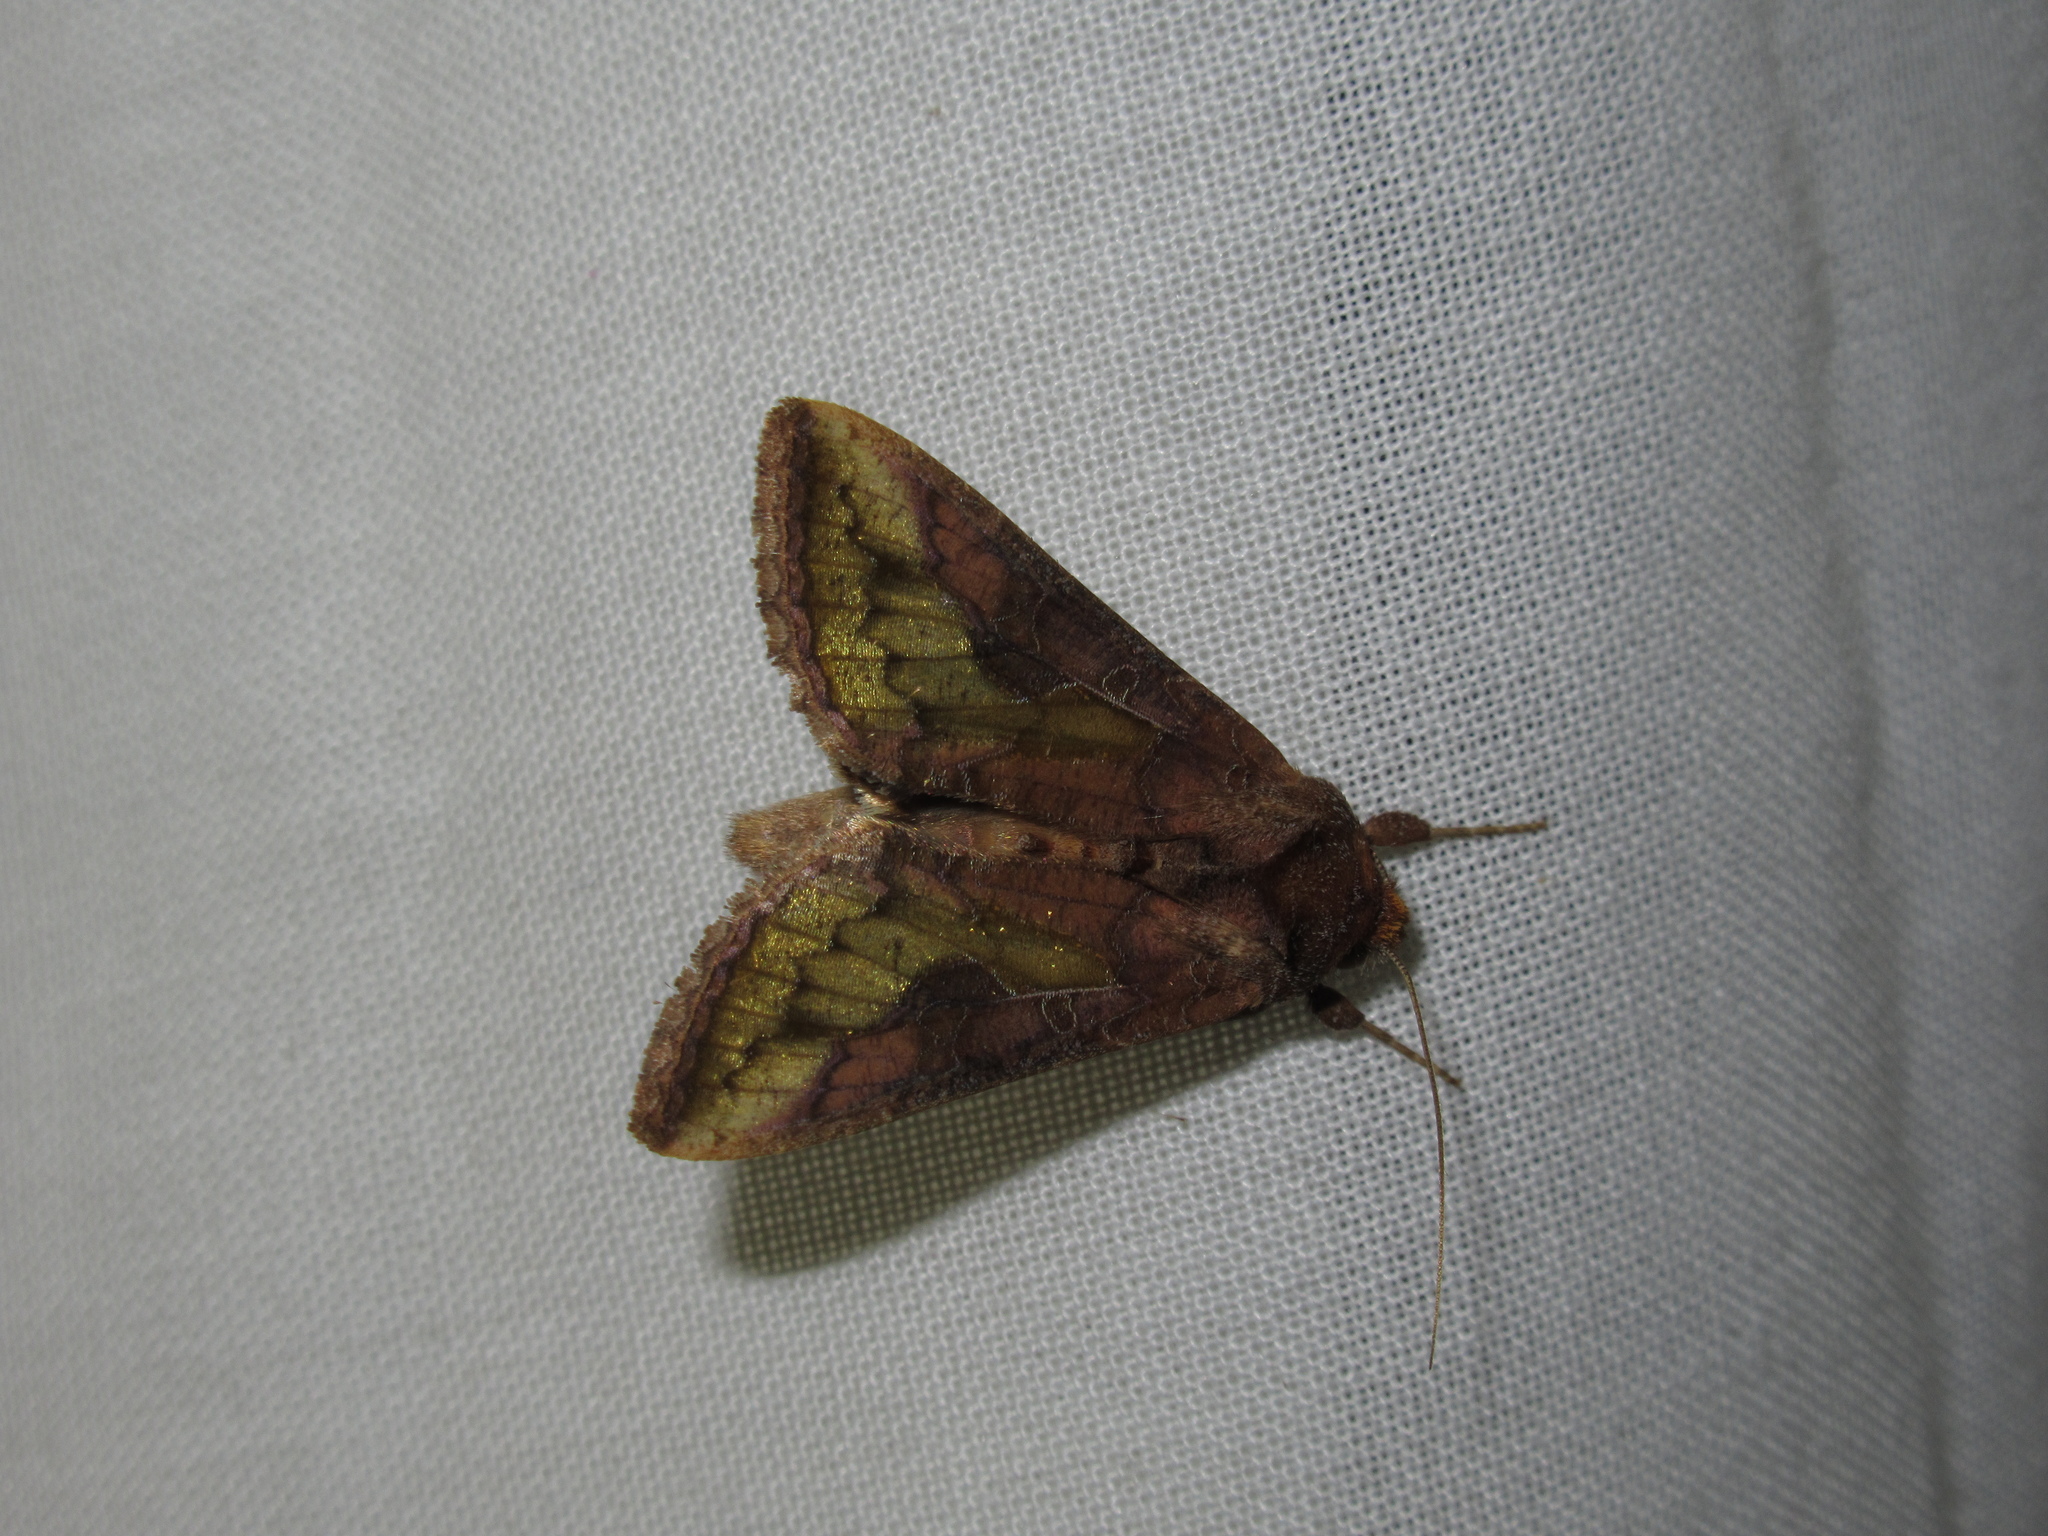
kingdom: Animalia
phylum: Arthropoda
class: Insecta
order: Lepidoptera
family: Noctuidae
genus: Thysanoplusia
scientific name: Thysanoplusia orichalcea
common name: Slender burnished brass, golden plusia
